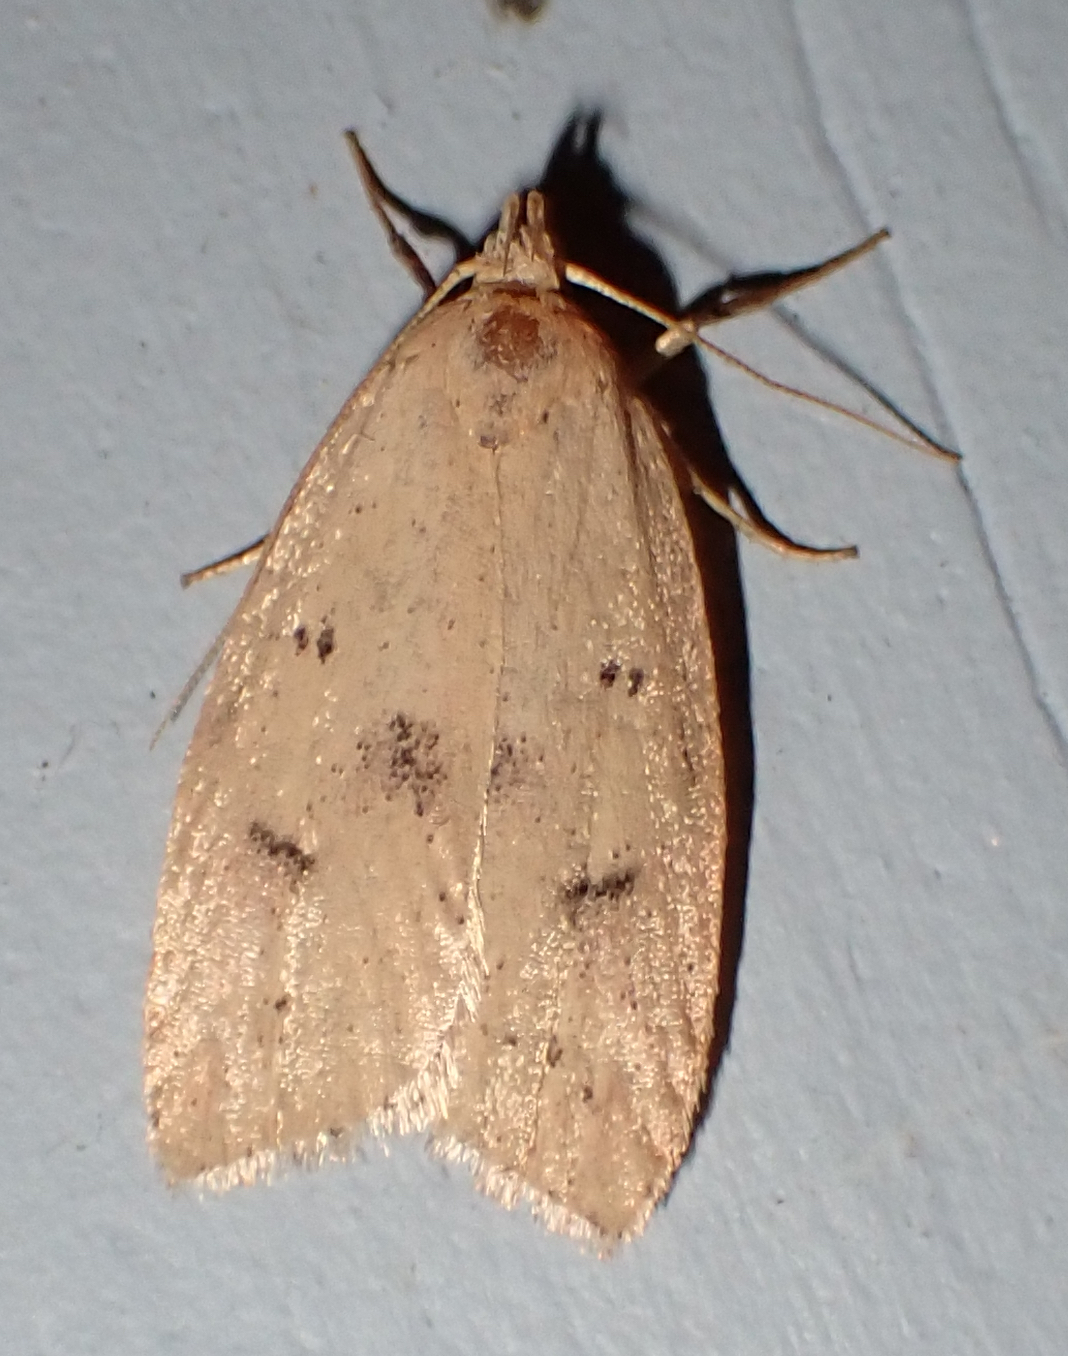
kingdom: Animalia
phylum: Arthropoda
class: Insecta
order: Lepidoptera
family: Peleopodidae
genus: Machimia
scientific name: Machimia tentoriferella
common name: Gold-striped leaftier moth
